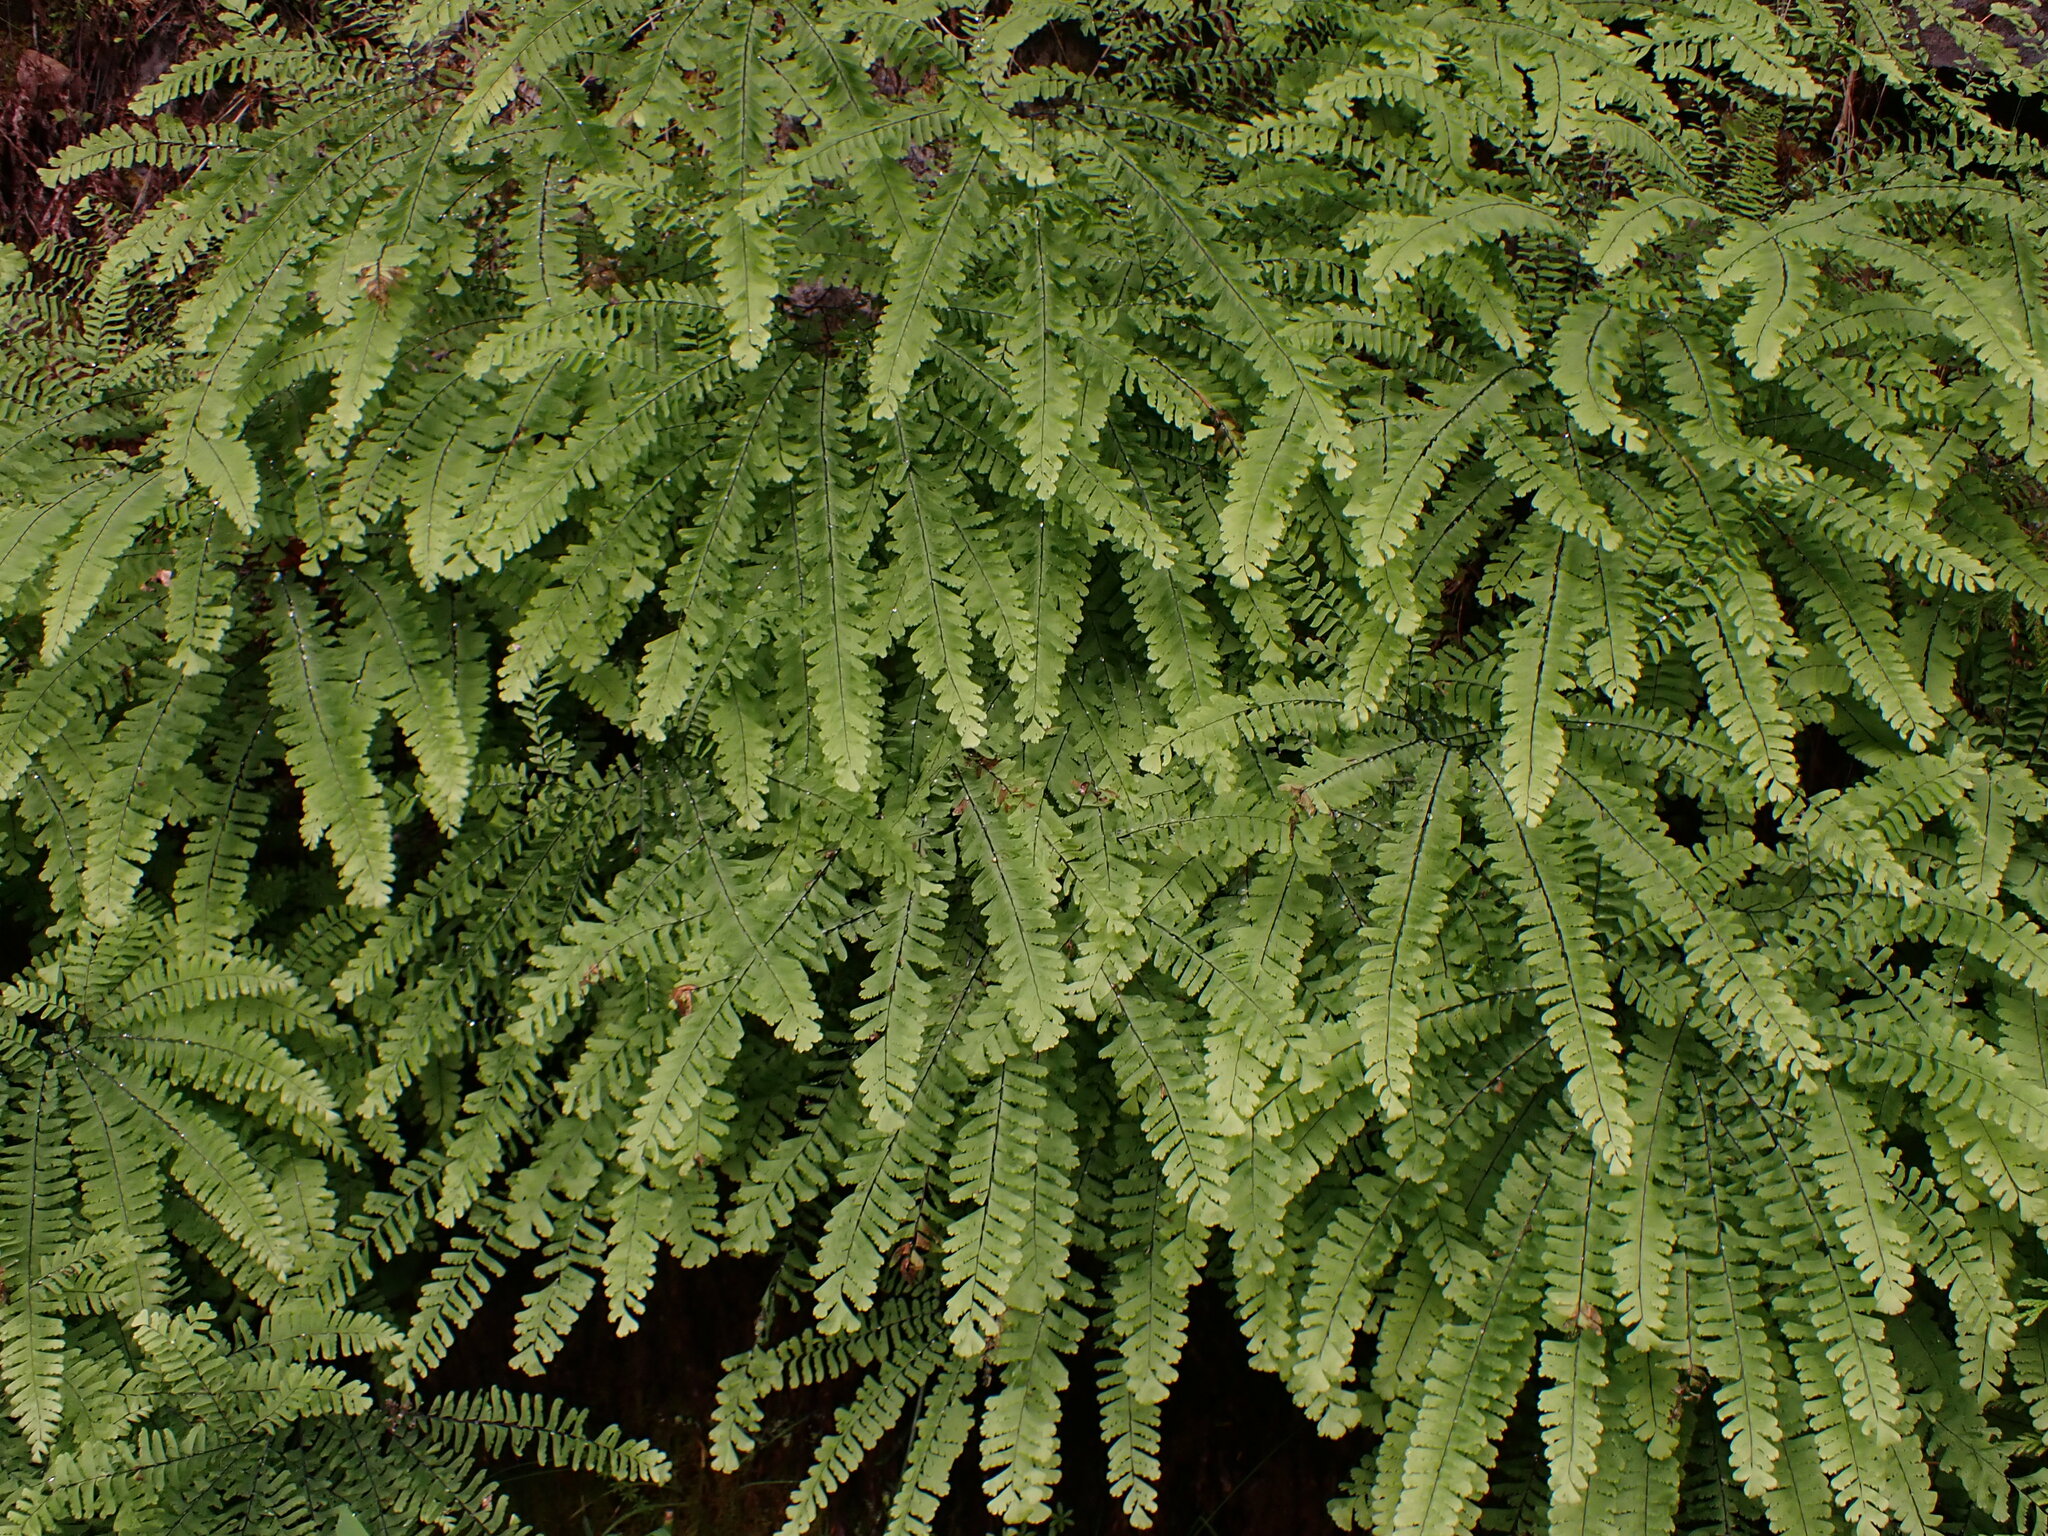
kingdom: Plantae
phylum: Tracheophyta
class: Polypodiopsida
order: Polypodiales
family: Pteridaceae
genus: Adiantum
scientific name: Adiantum aleuticum
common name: Aleutian maidenhair fern
